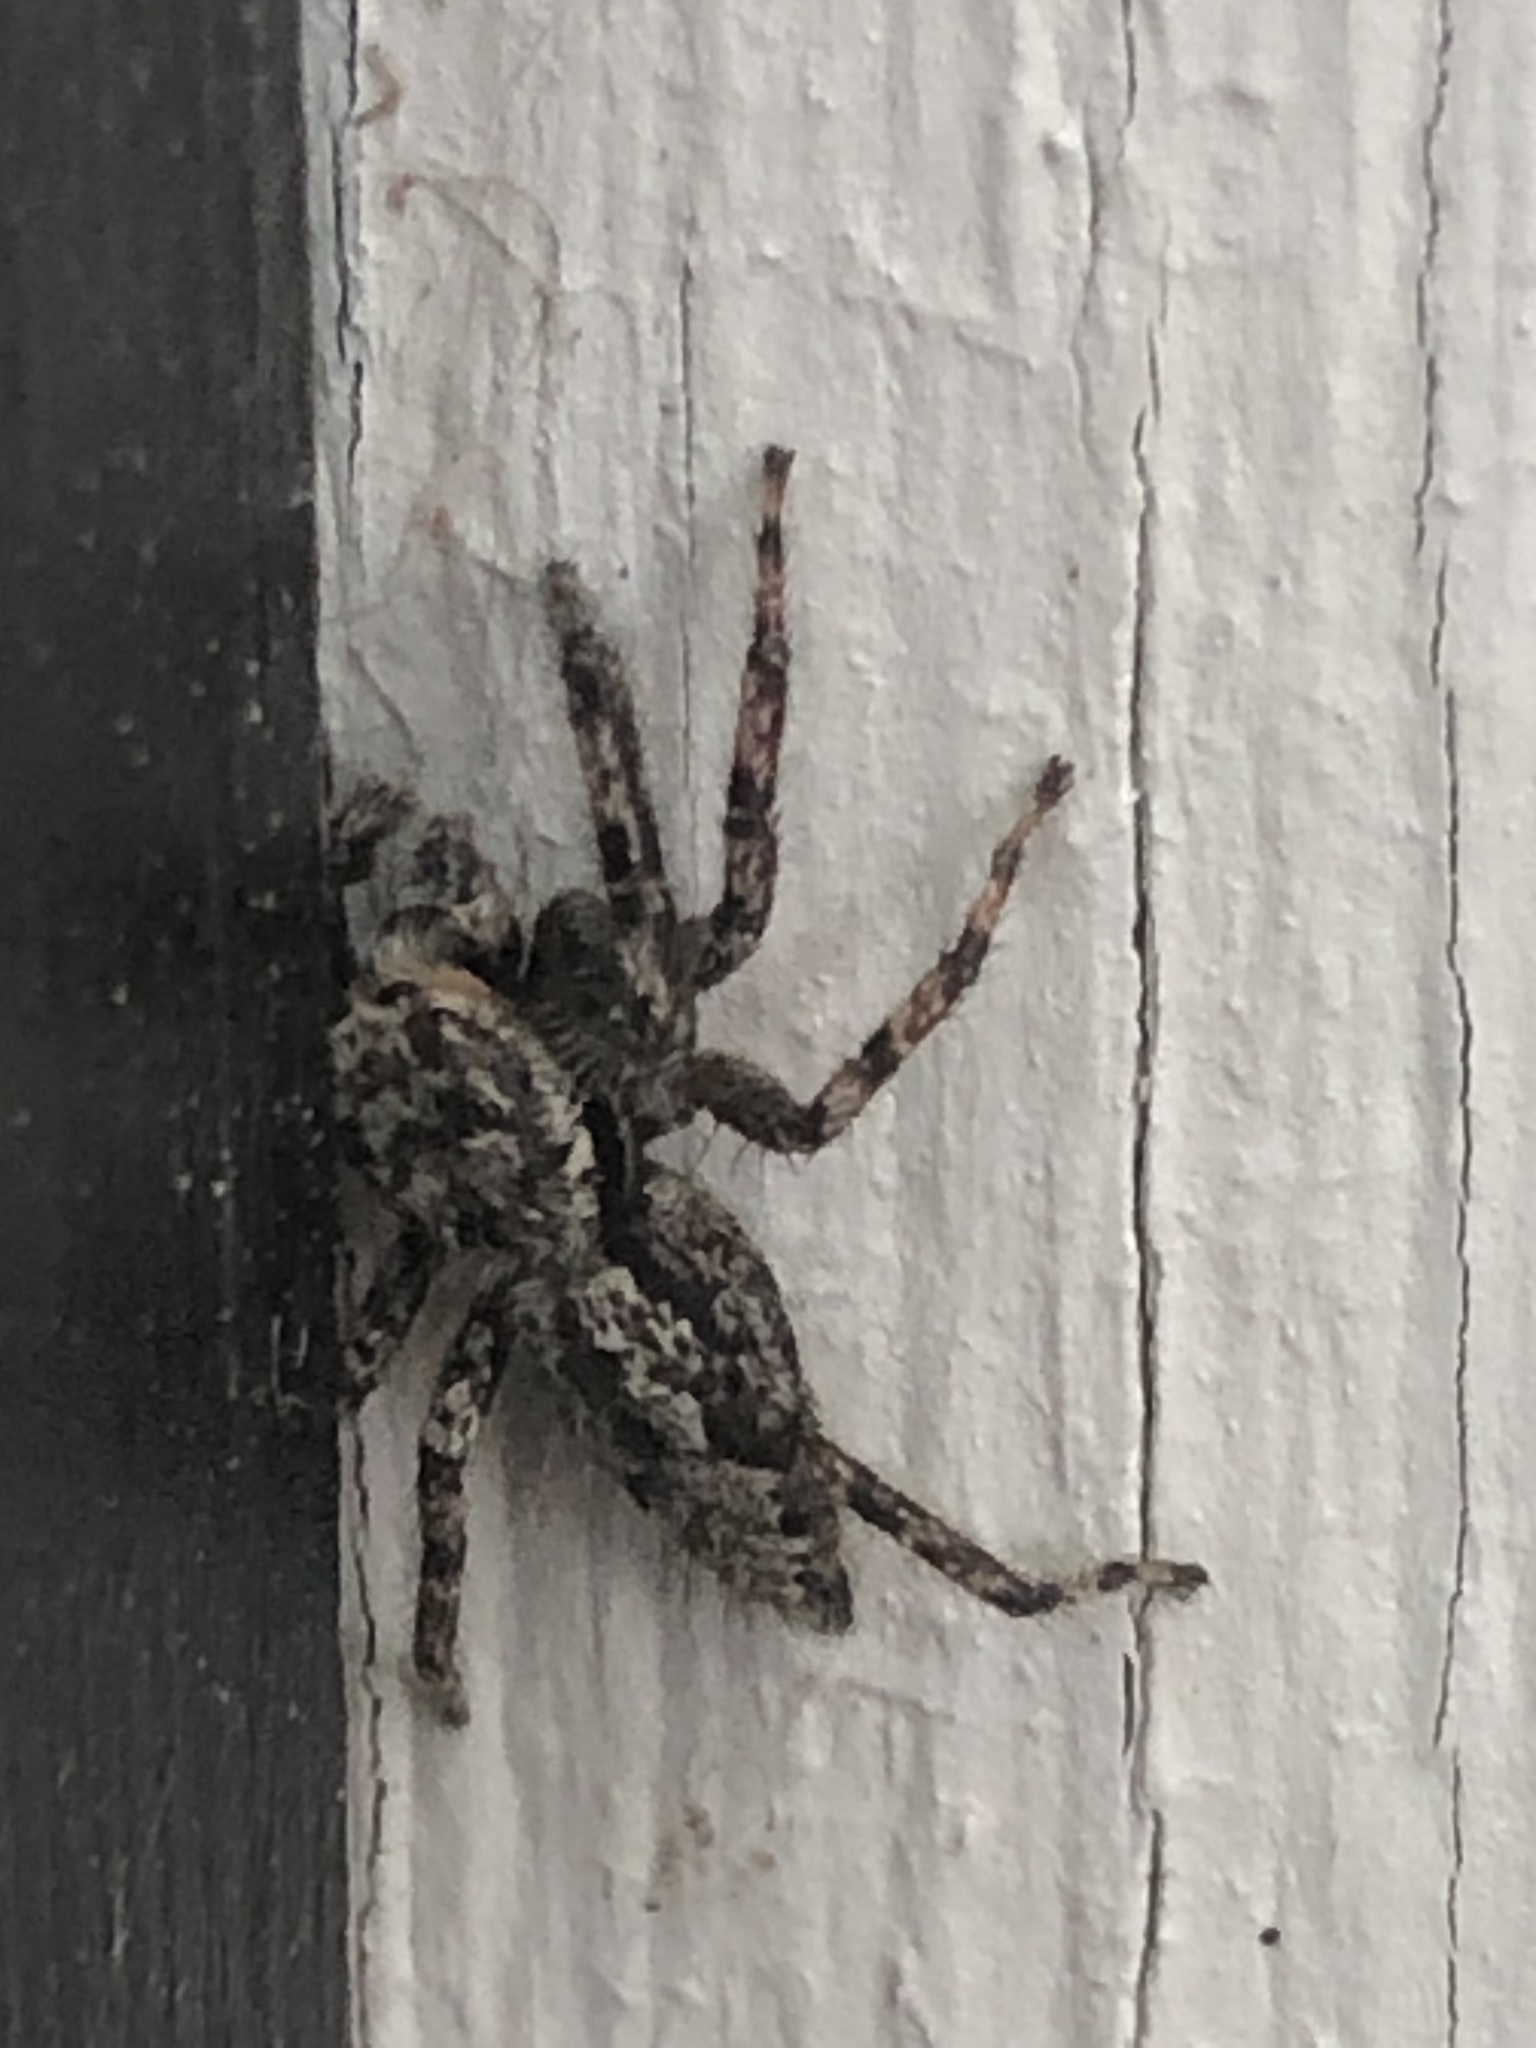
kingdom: Animalia
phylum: Arthropoda
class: Arachnida
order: Araneae
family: Salticidae
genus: Platycryptus
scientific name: Platycryptus undatus
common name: Tan jumping spider
